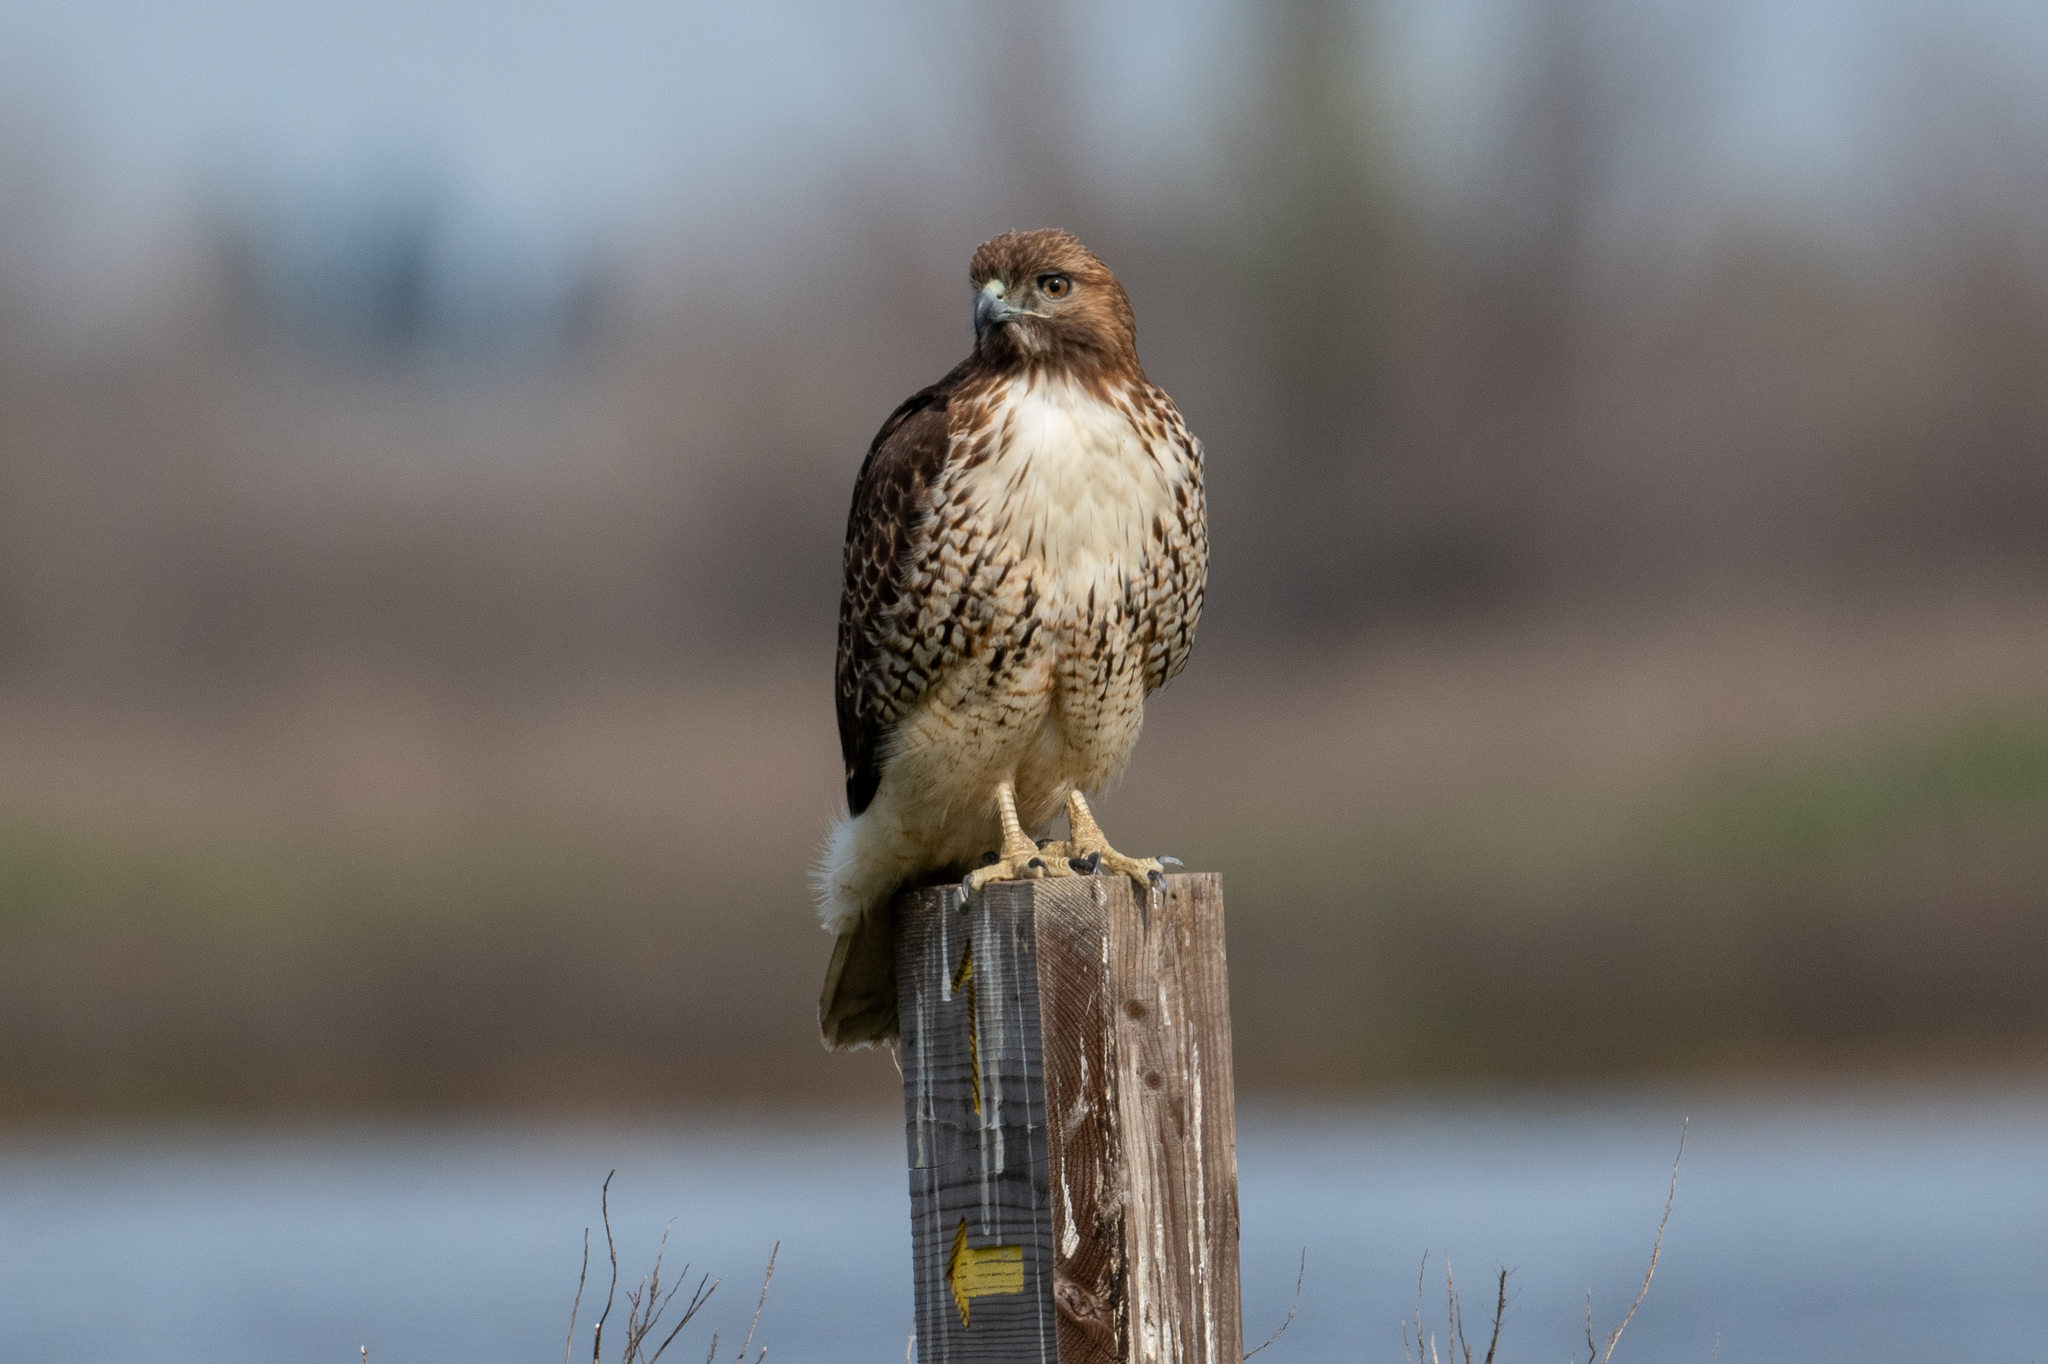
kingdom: Animalia
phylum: Chordata
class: Aves
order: Accipitriformes
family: Accipitridae
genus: Buteo
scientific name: Buteo jamaicensis
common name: Red-tailed hawk
